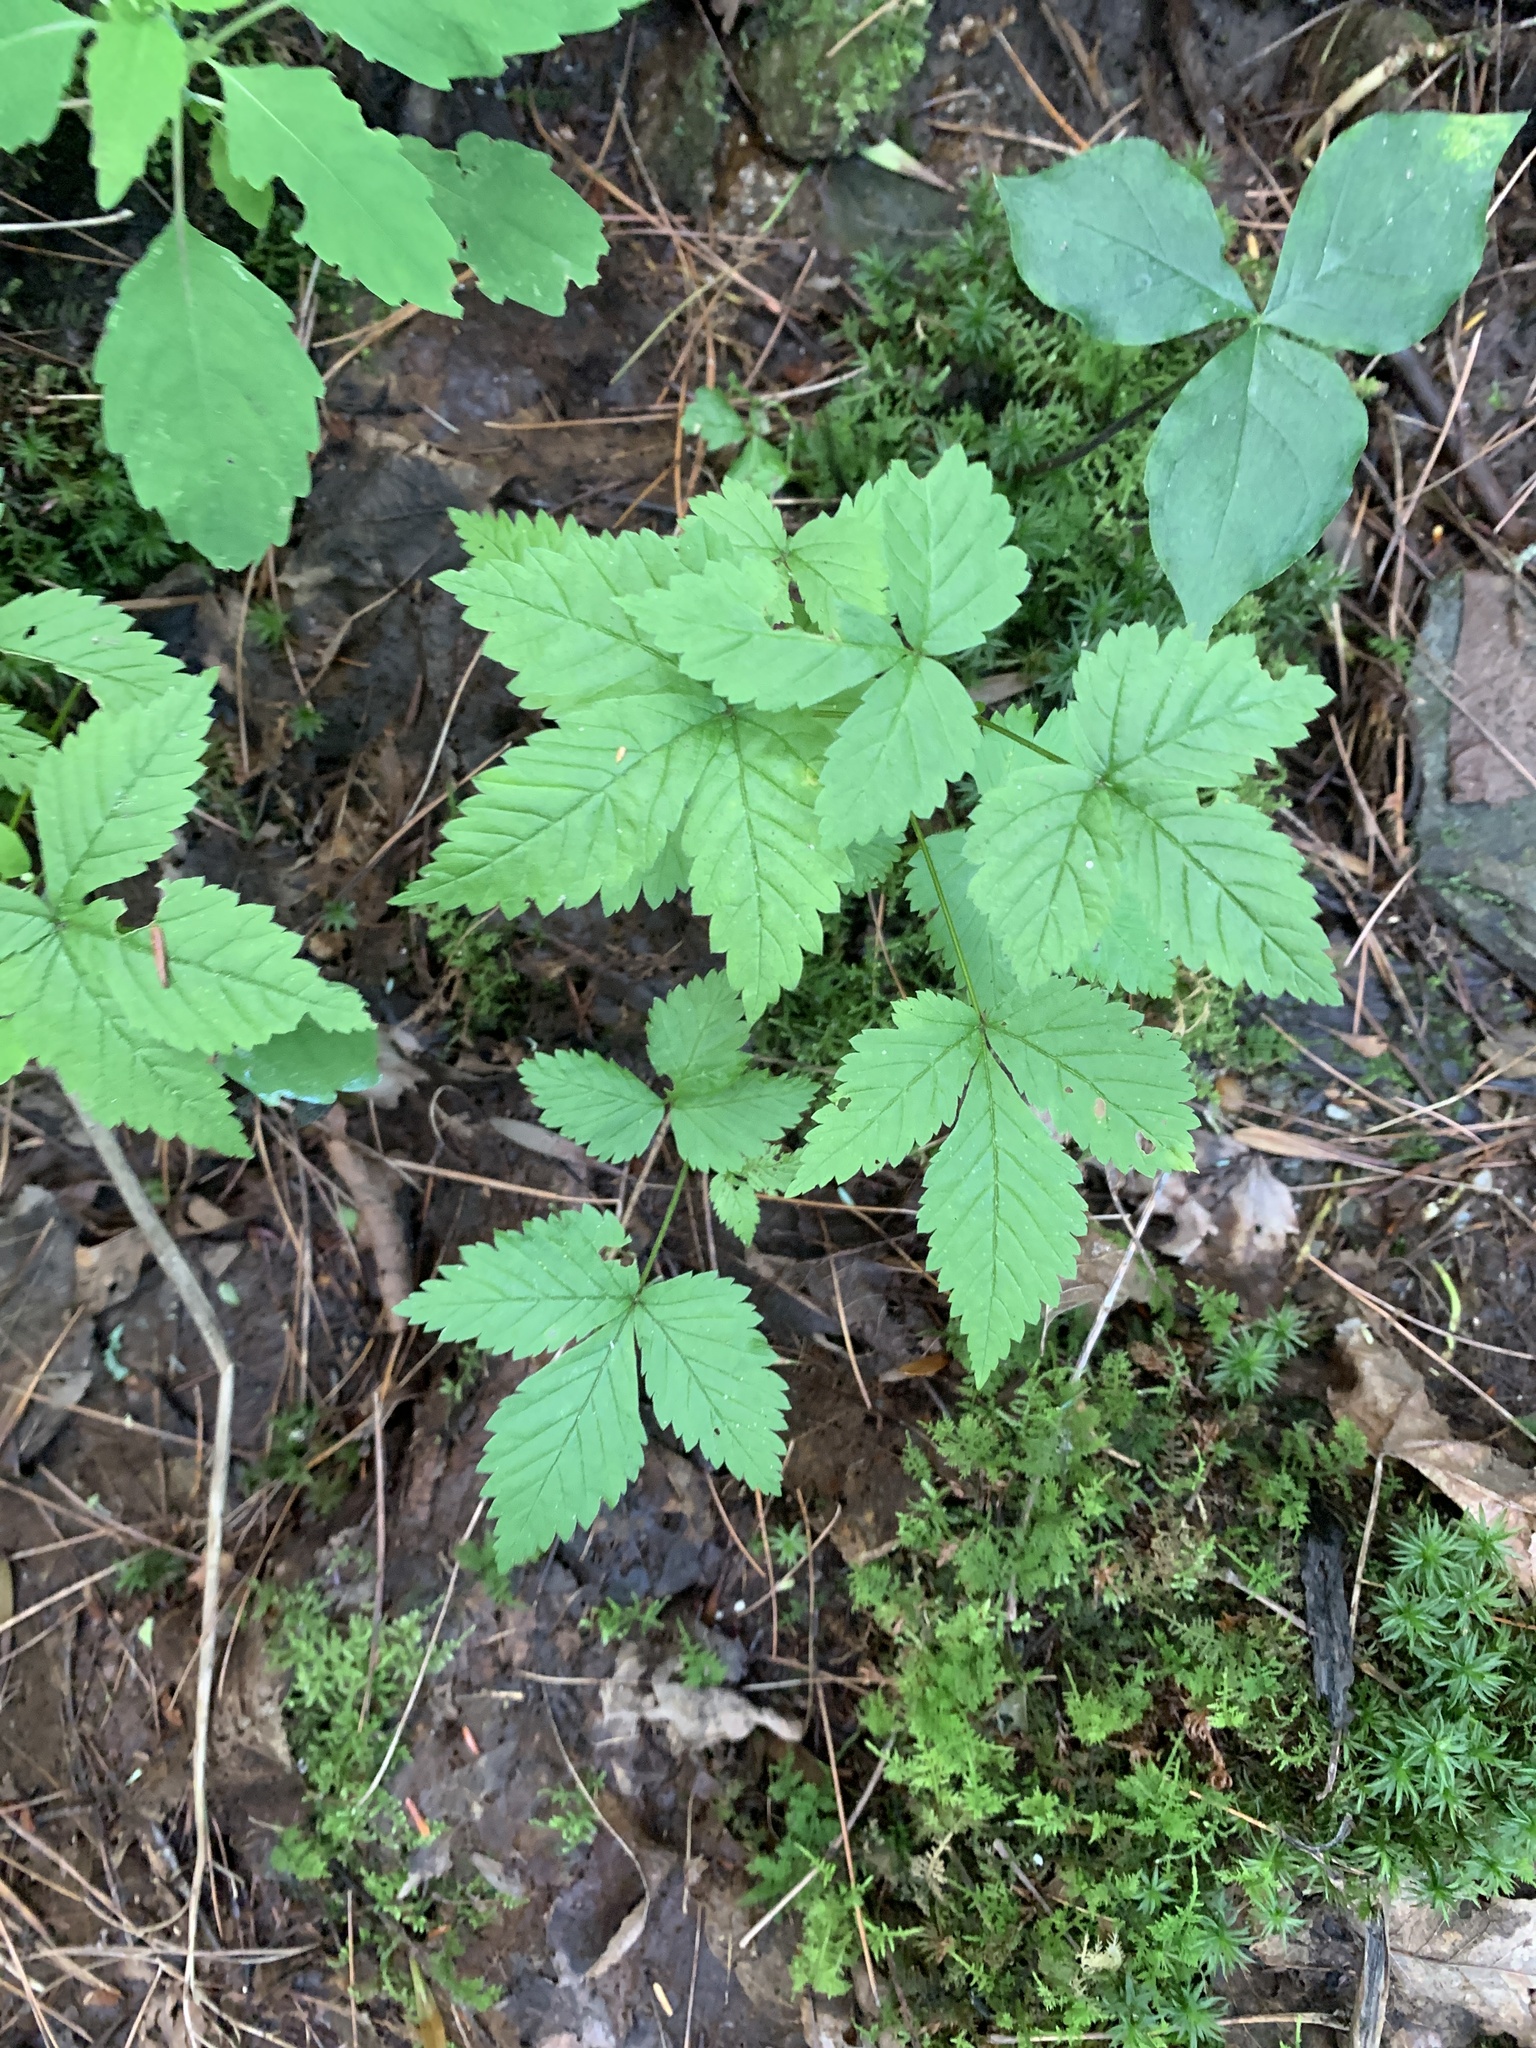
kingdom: Plantae
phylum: Tracheophyta
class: Magnoliopsida
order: Rosales
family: Rosaceae
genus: Rubus
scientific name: Rubus pubescens
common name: Dwarf raspberry
